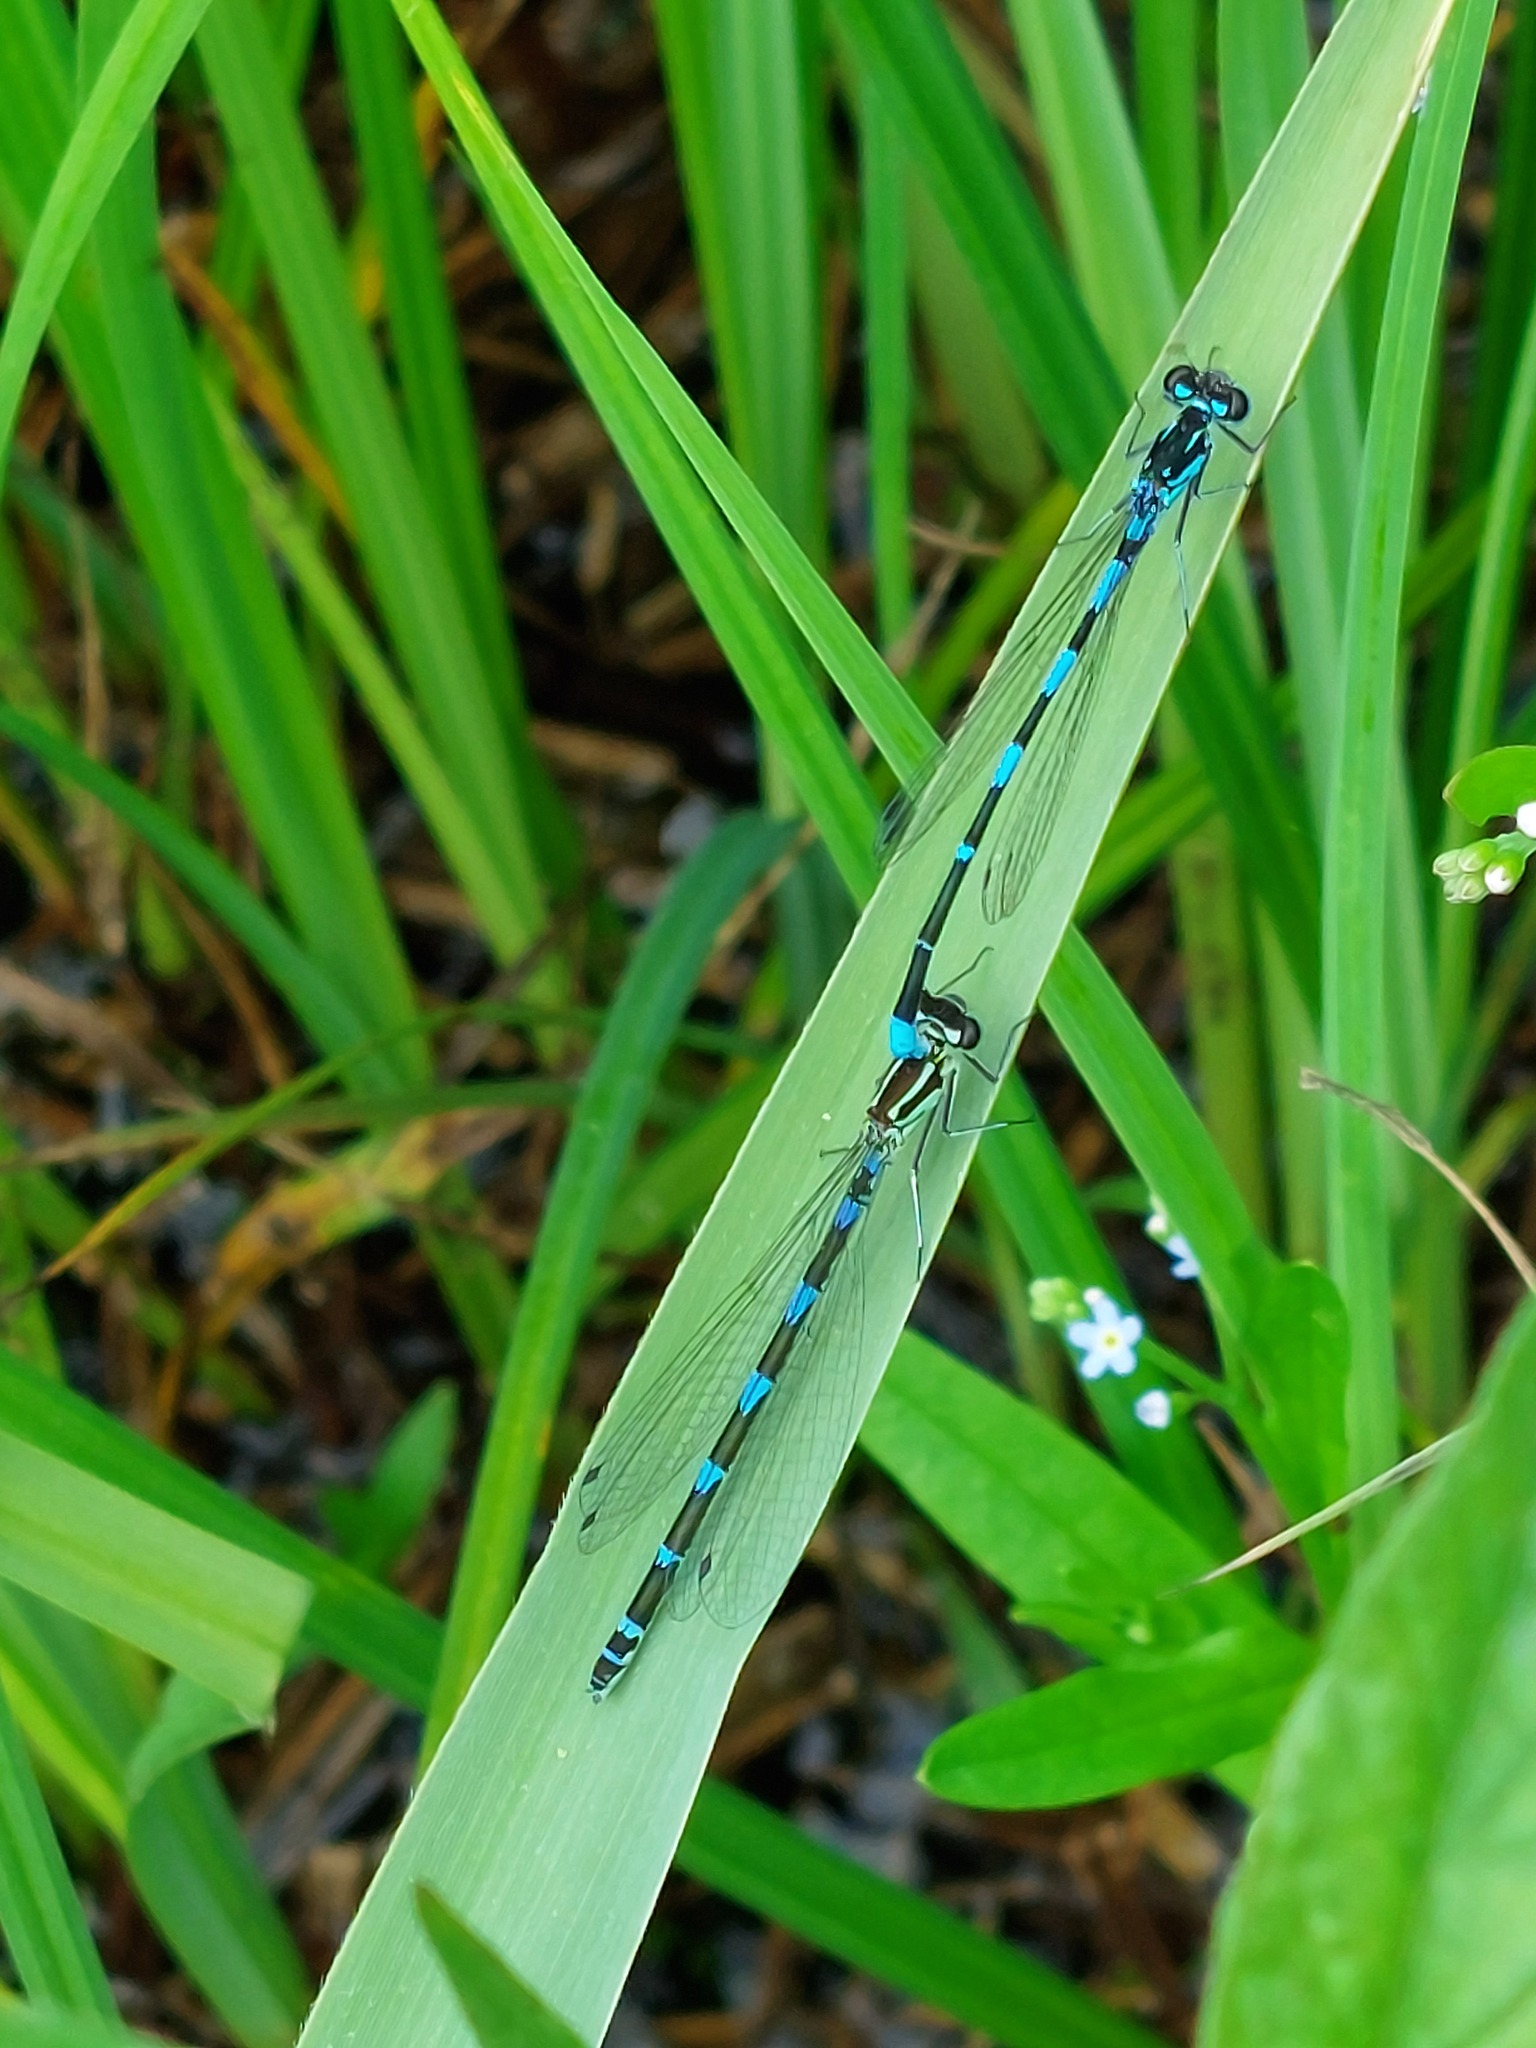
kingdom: Animalia
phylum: Arthropoda
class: Insecta
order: Odonata
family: Coenagrionidae
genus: Coenagrion
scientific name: Coenagrion pulchellum
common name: Variable bluet
